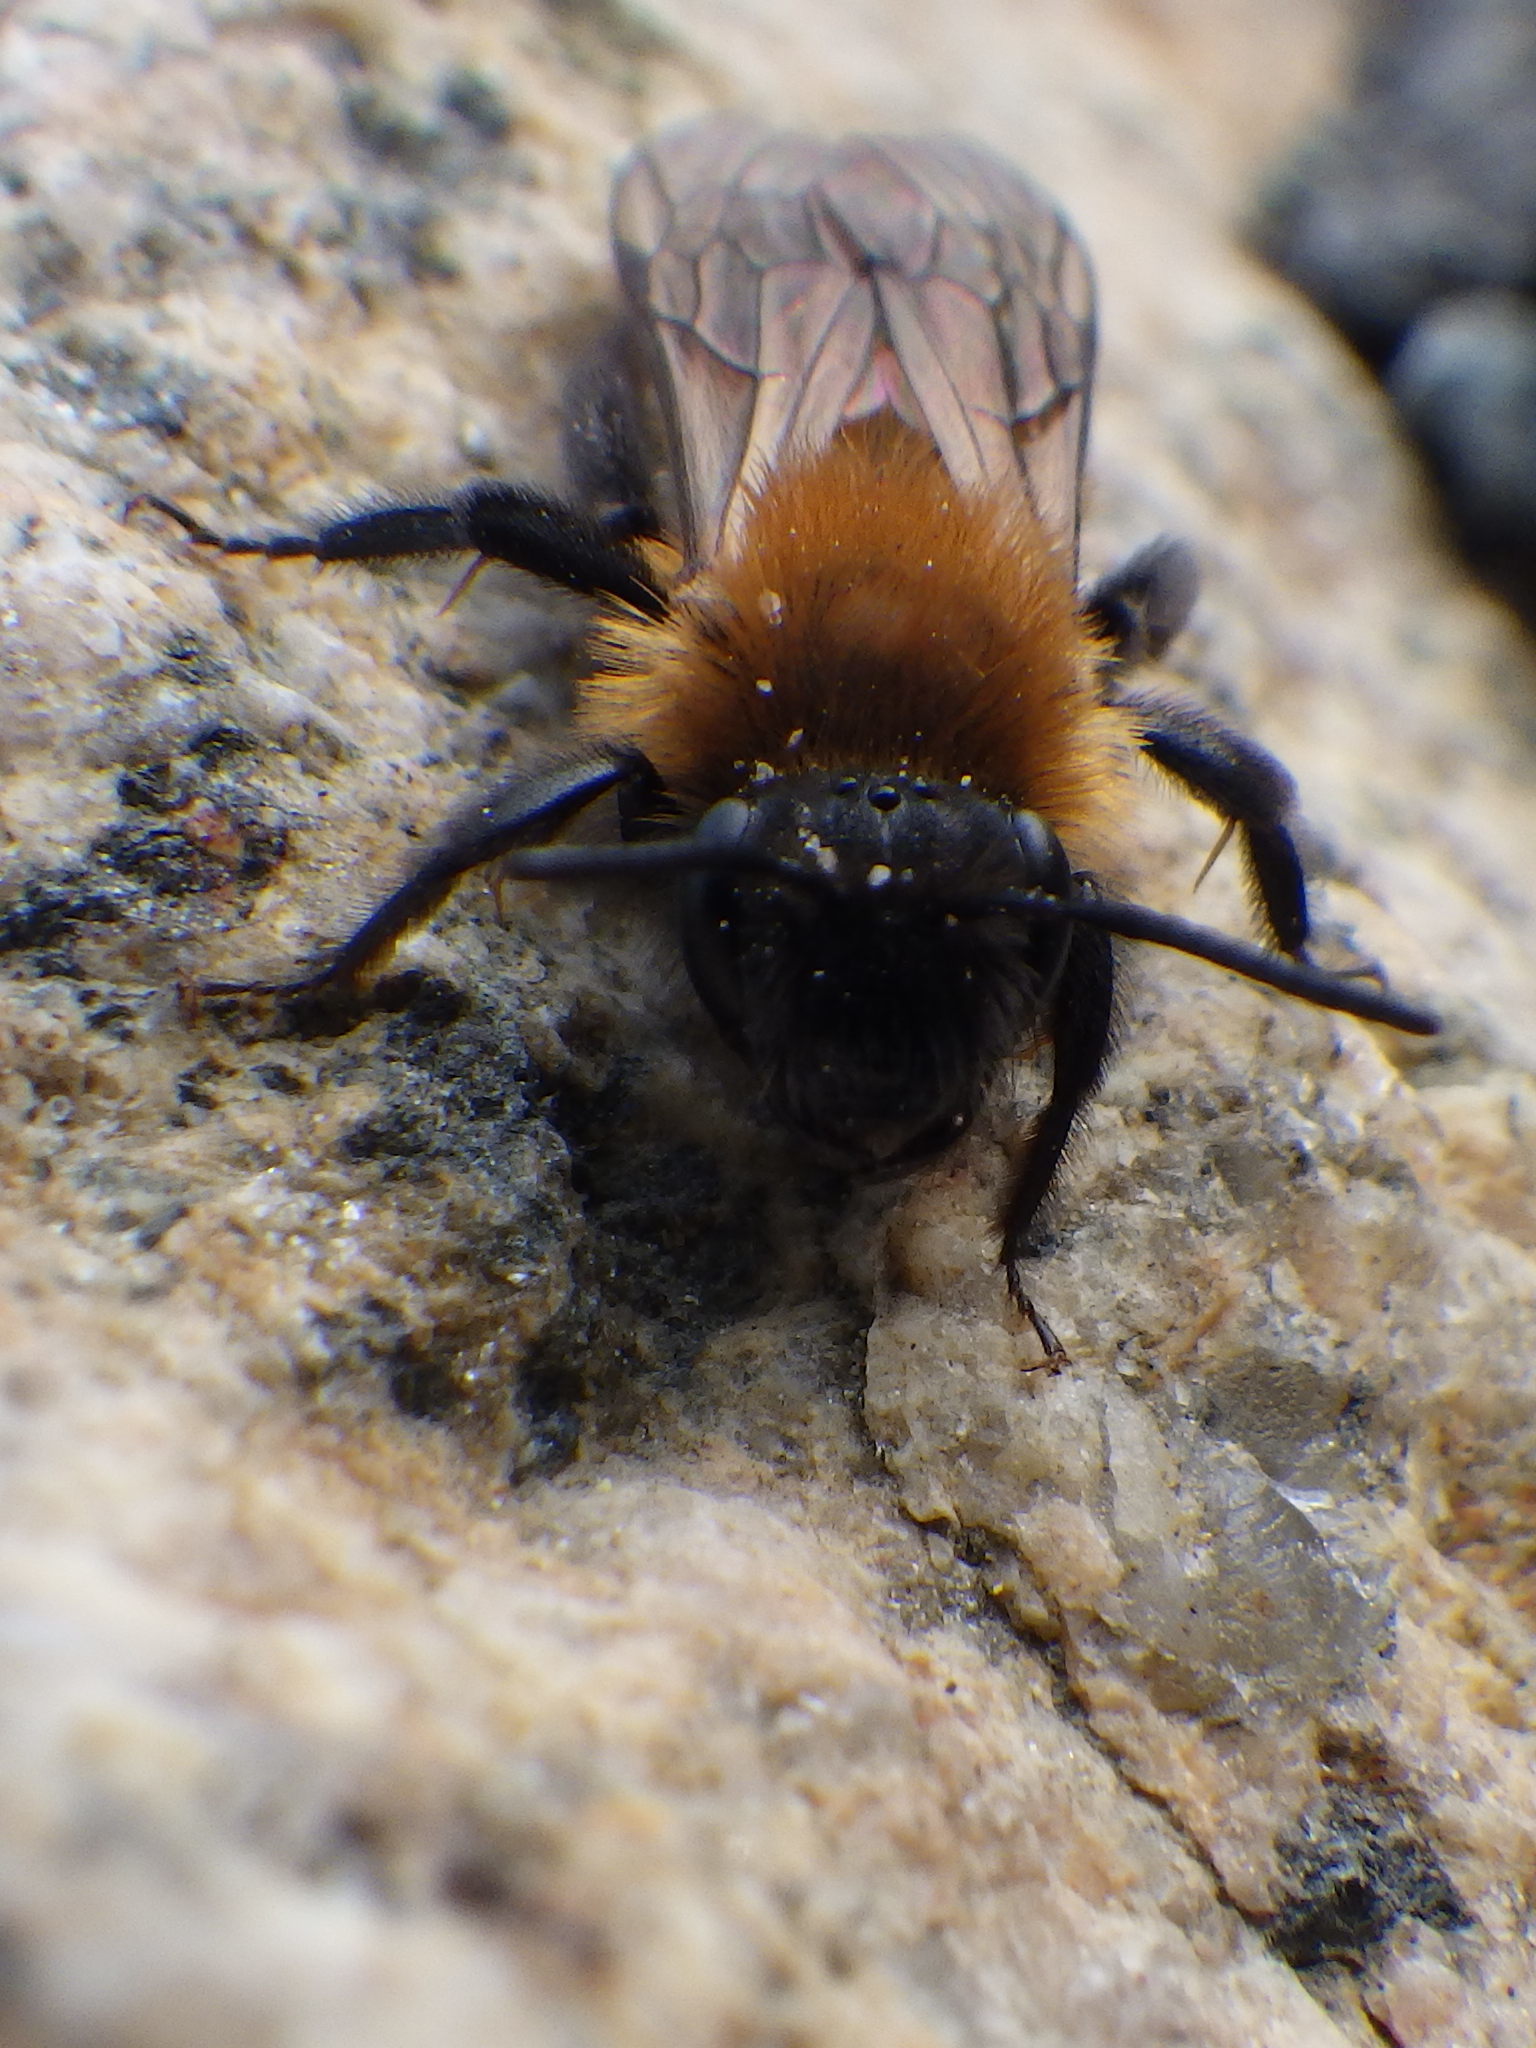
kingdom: Animalia
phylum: Arthropoda
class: Insecta
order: Hymenoptera
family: Andrenidae
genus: Andrena
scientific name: Andrena milwaukeensis
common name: Milwaukee mining bee
